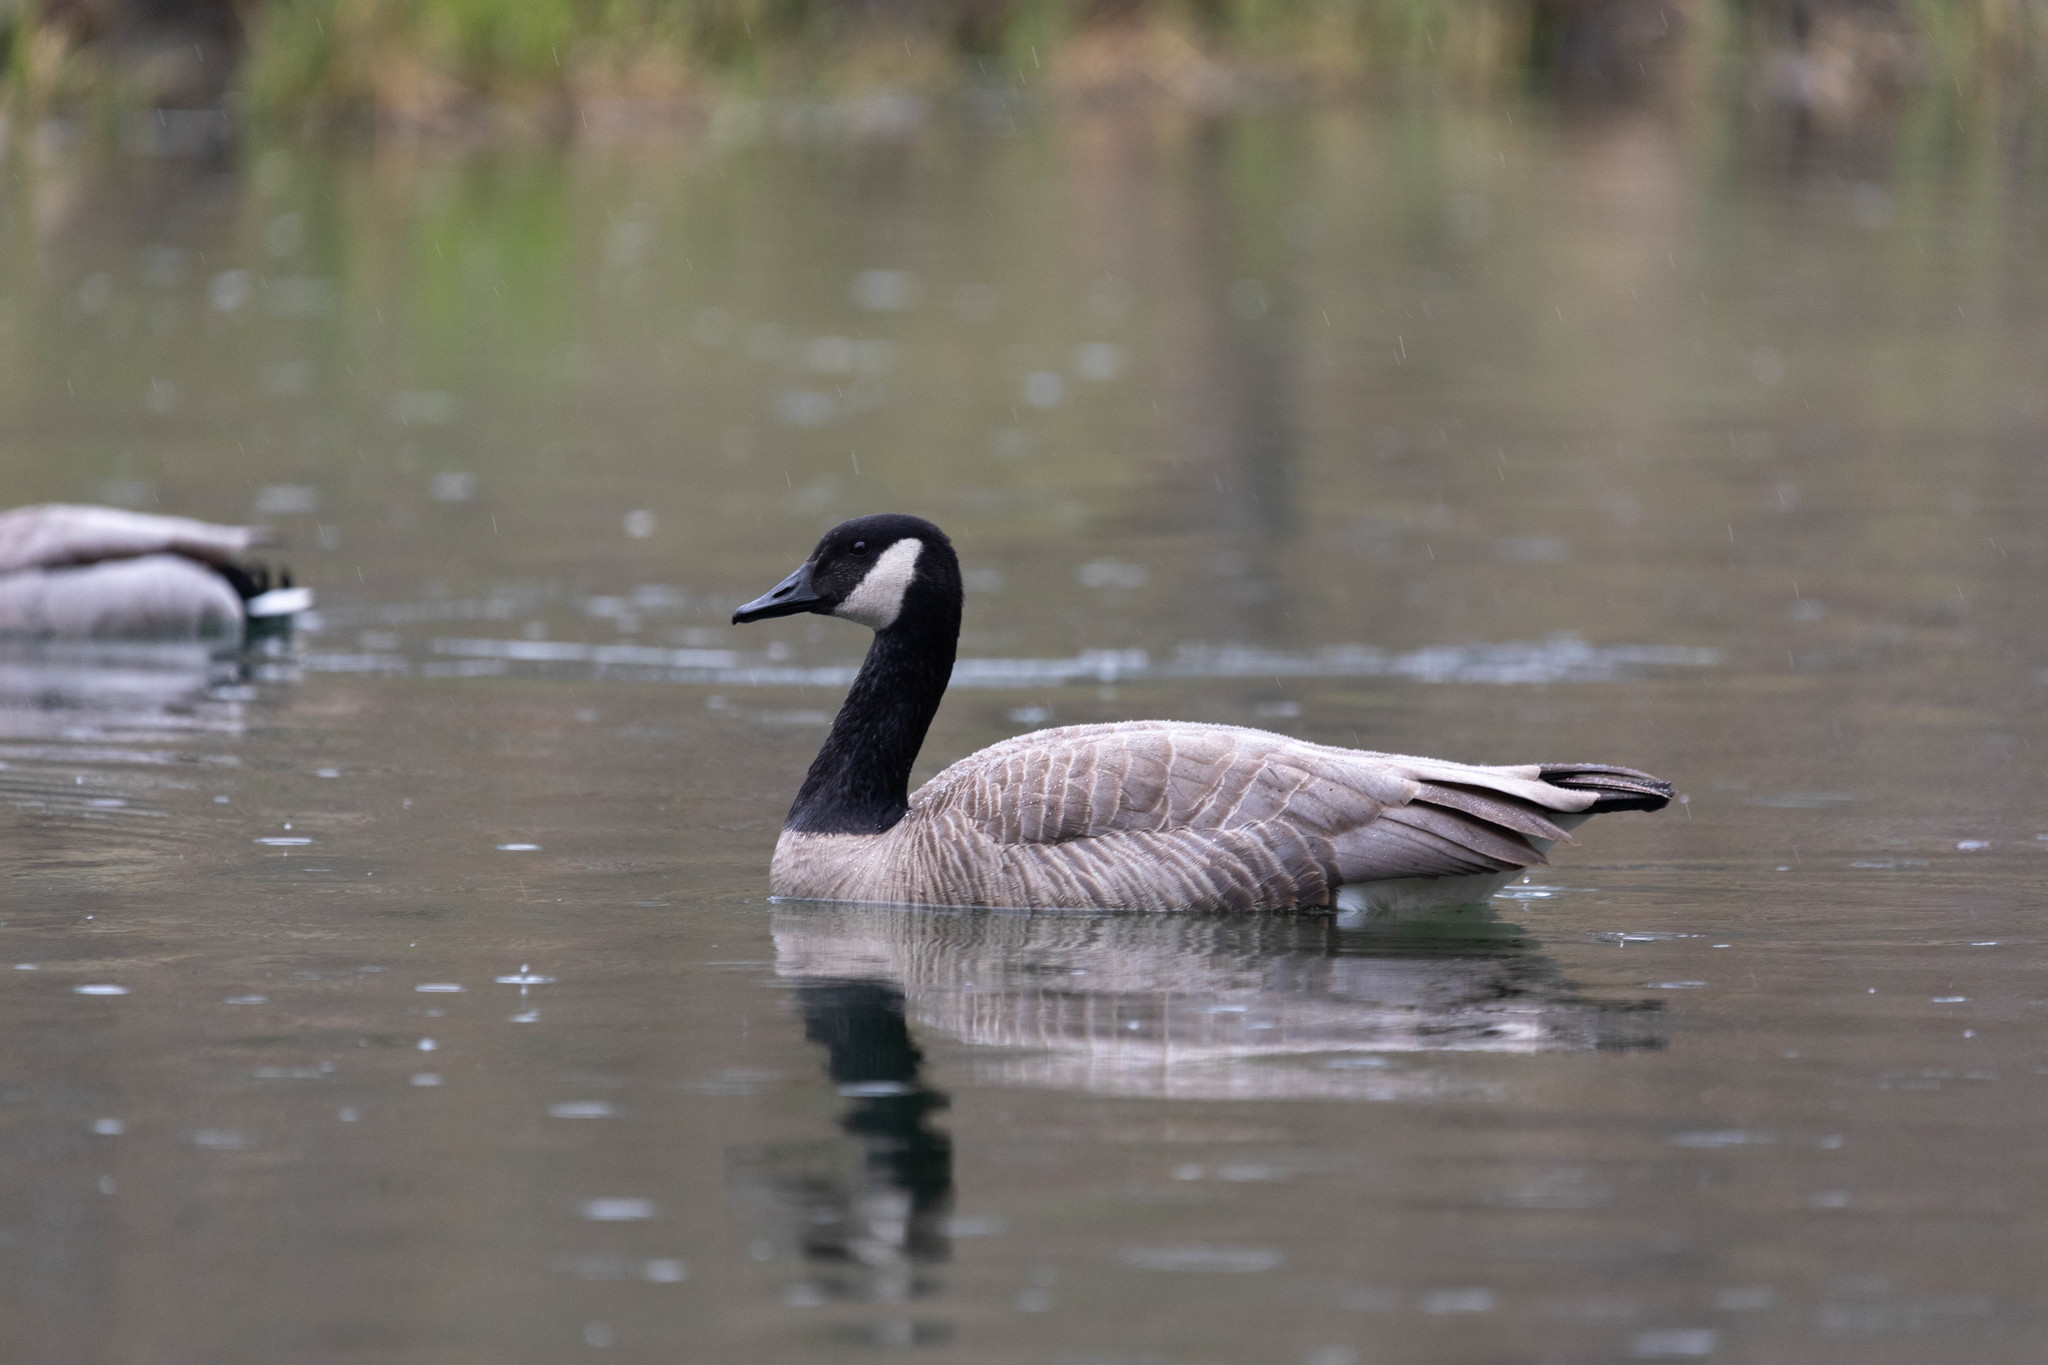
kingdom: Animalia
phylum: Chordata
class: Aves
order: Anseriformes
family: Anatidae
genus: Branta
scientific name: Branta canadensis
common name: Canada goose
